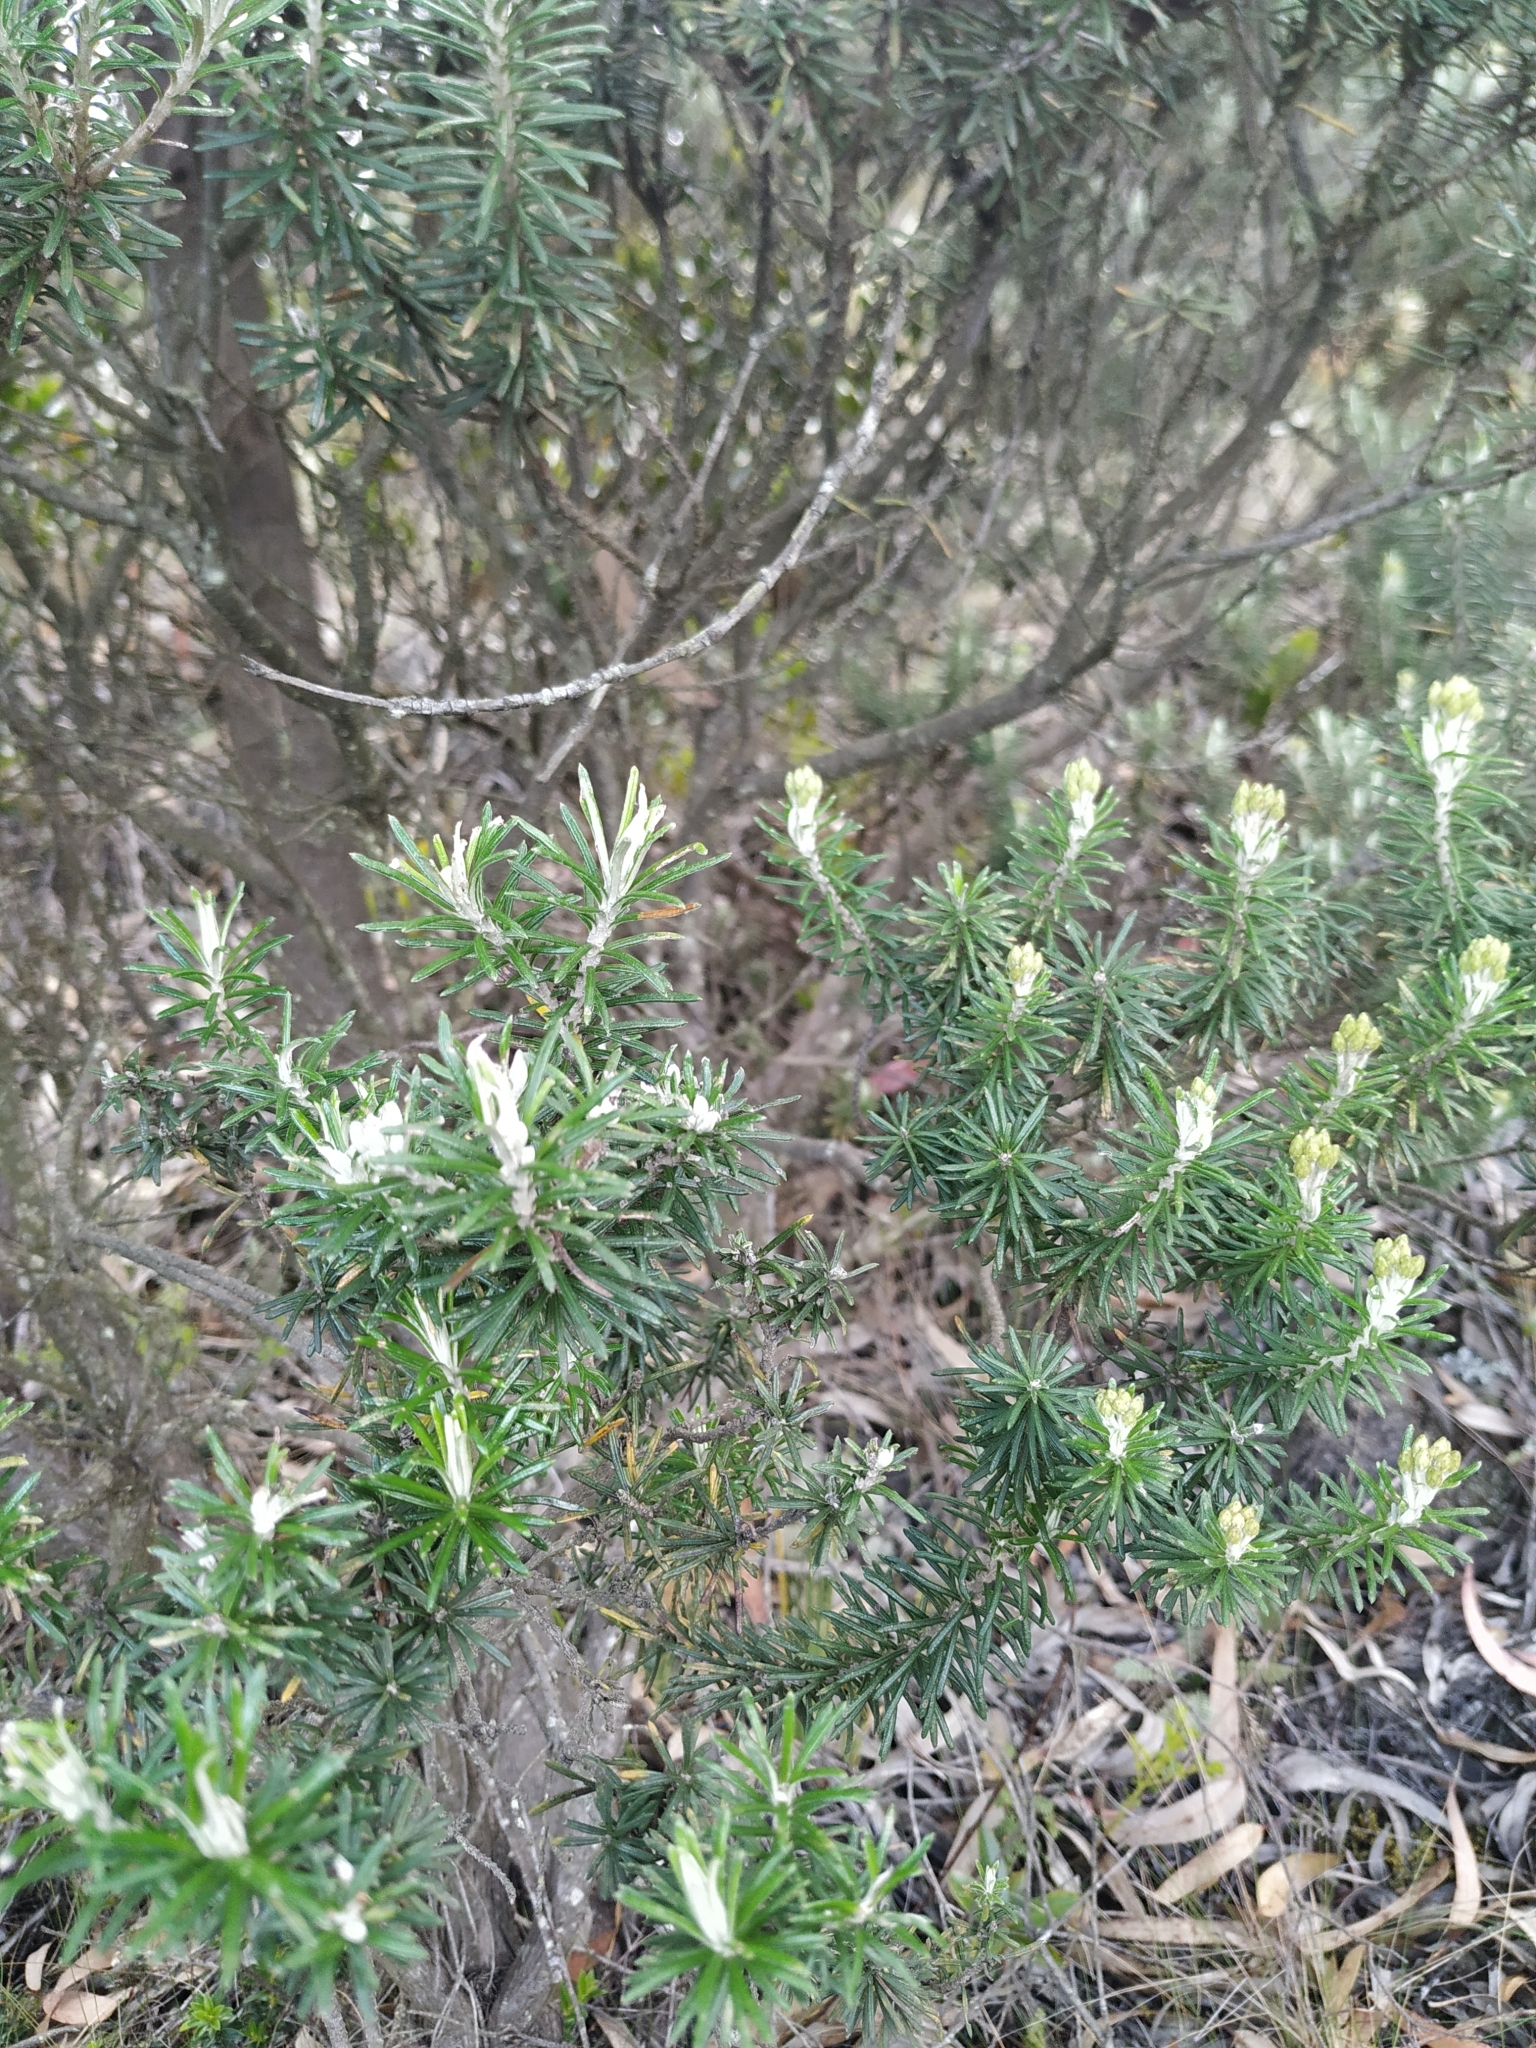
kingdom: Plantae
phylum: Tracheophyta
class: Magnoliopsida
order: Asterales
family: Asteraceae
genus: Linochilus
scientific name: Linochilus rosmarinifolius
